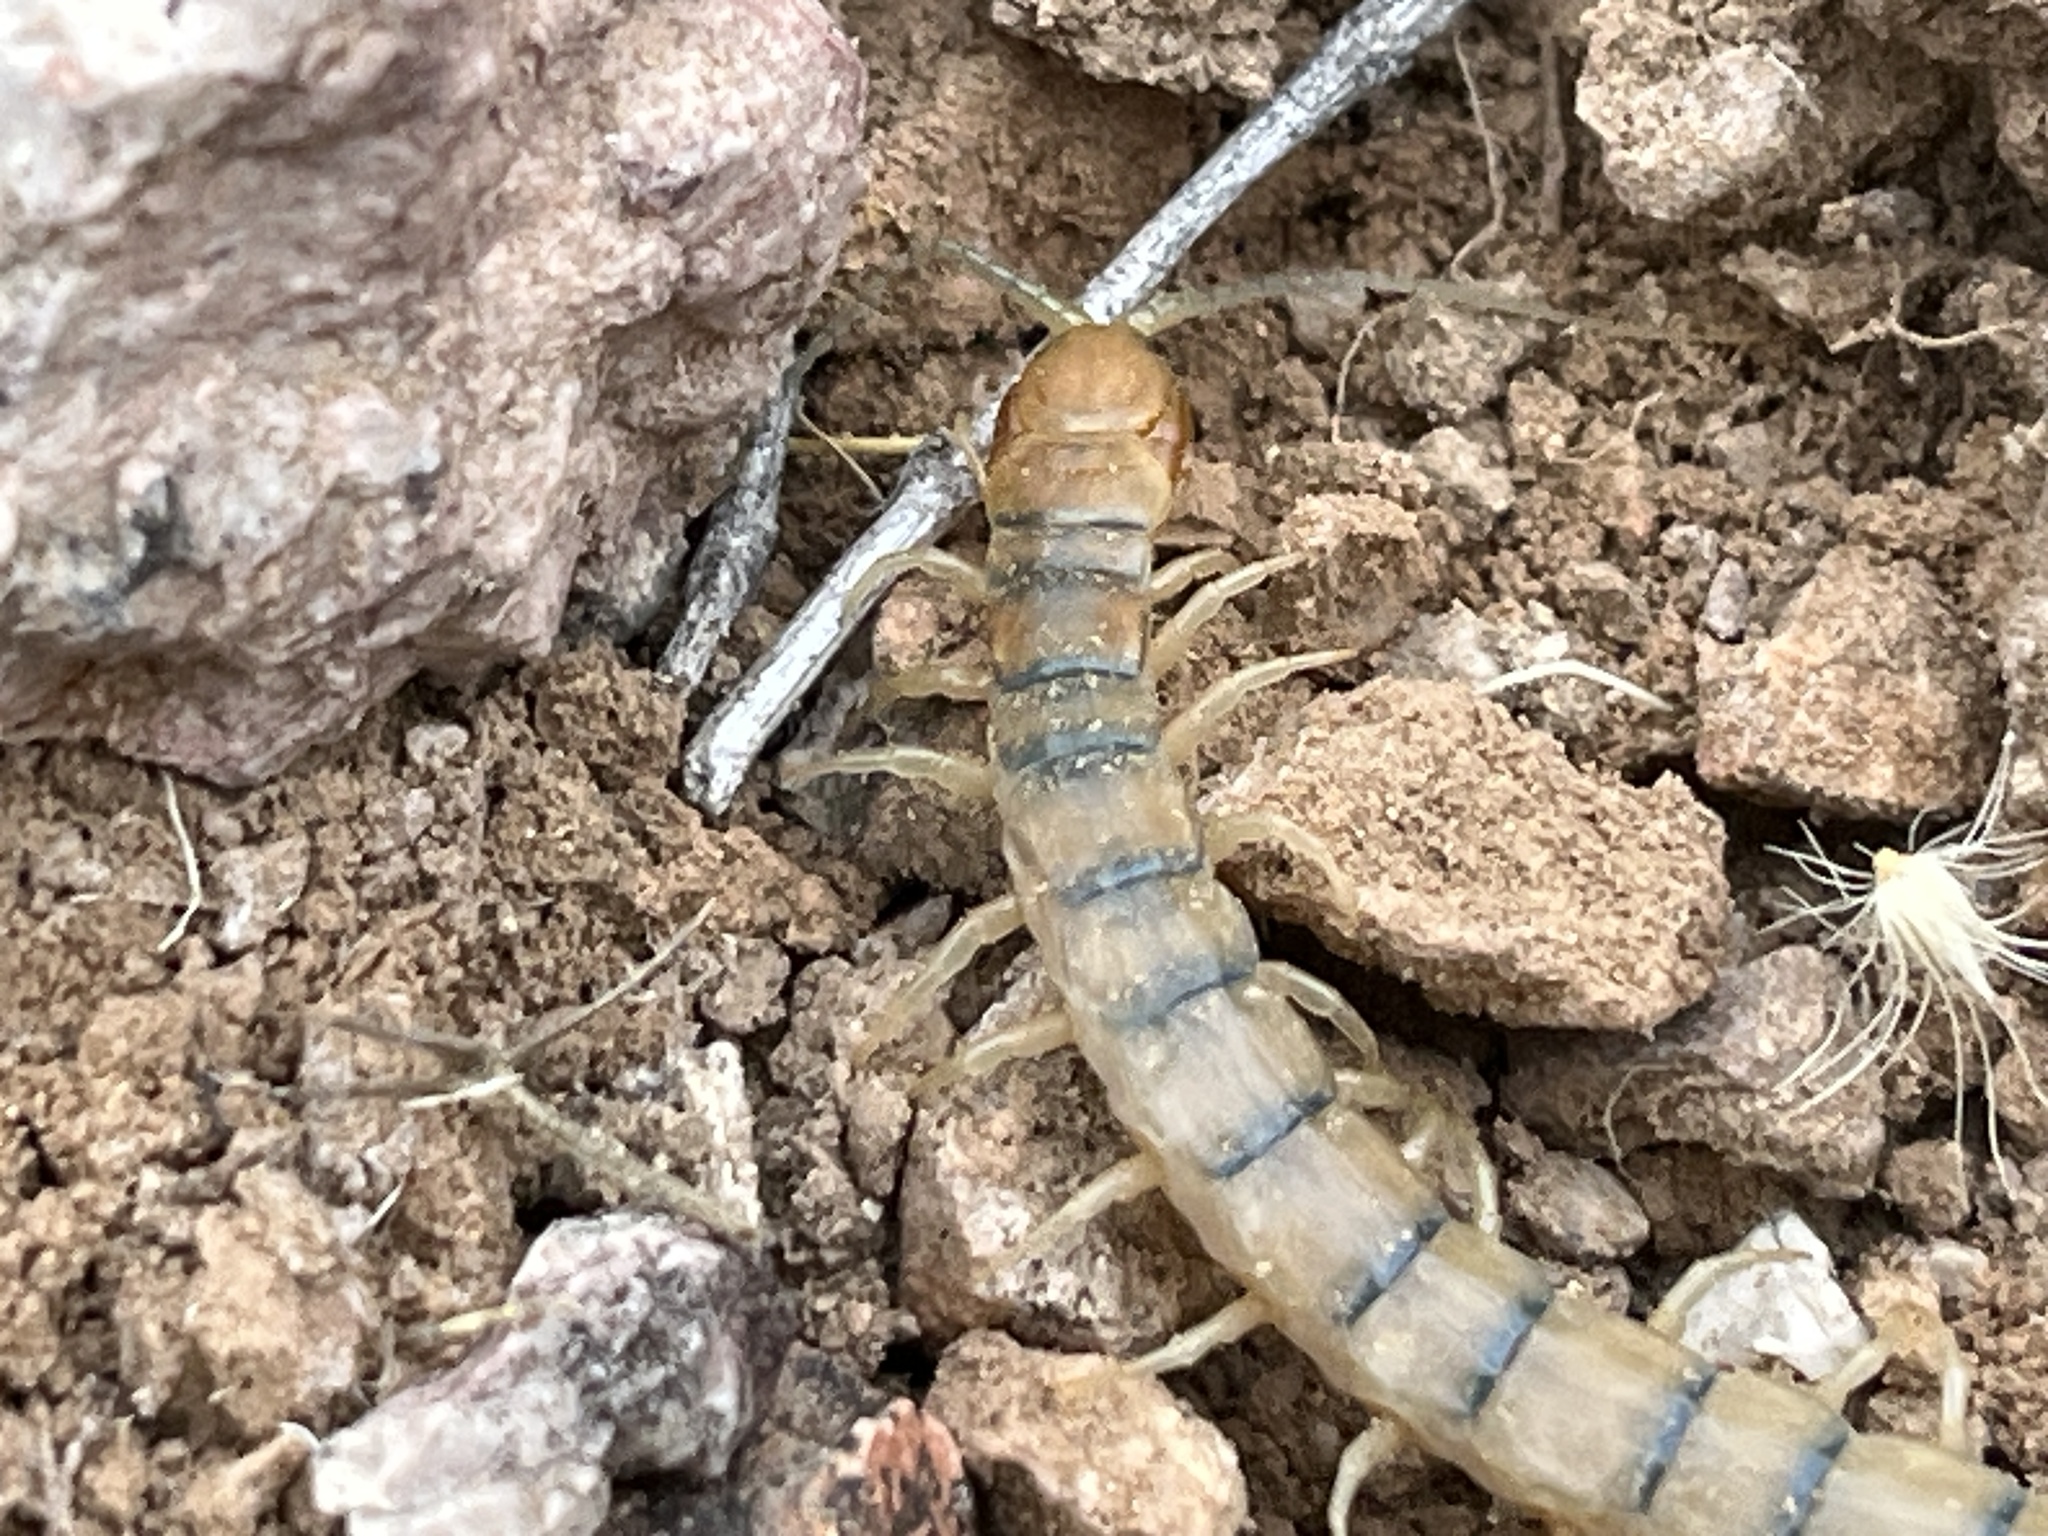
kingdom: Animalia
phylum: Arthropoda
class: Chilopoda
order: Scolopendromorpha
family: Scolopendridae
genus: Scolopendra
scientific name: Scolopendra polymorpha
